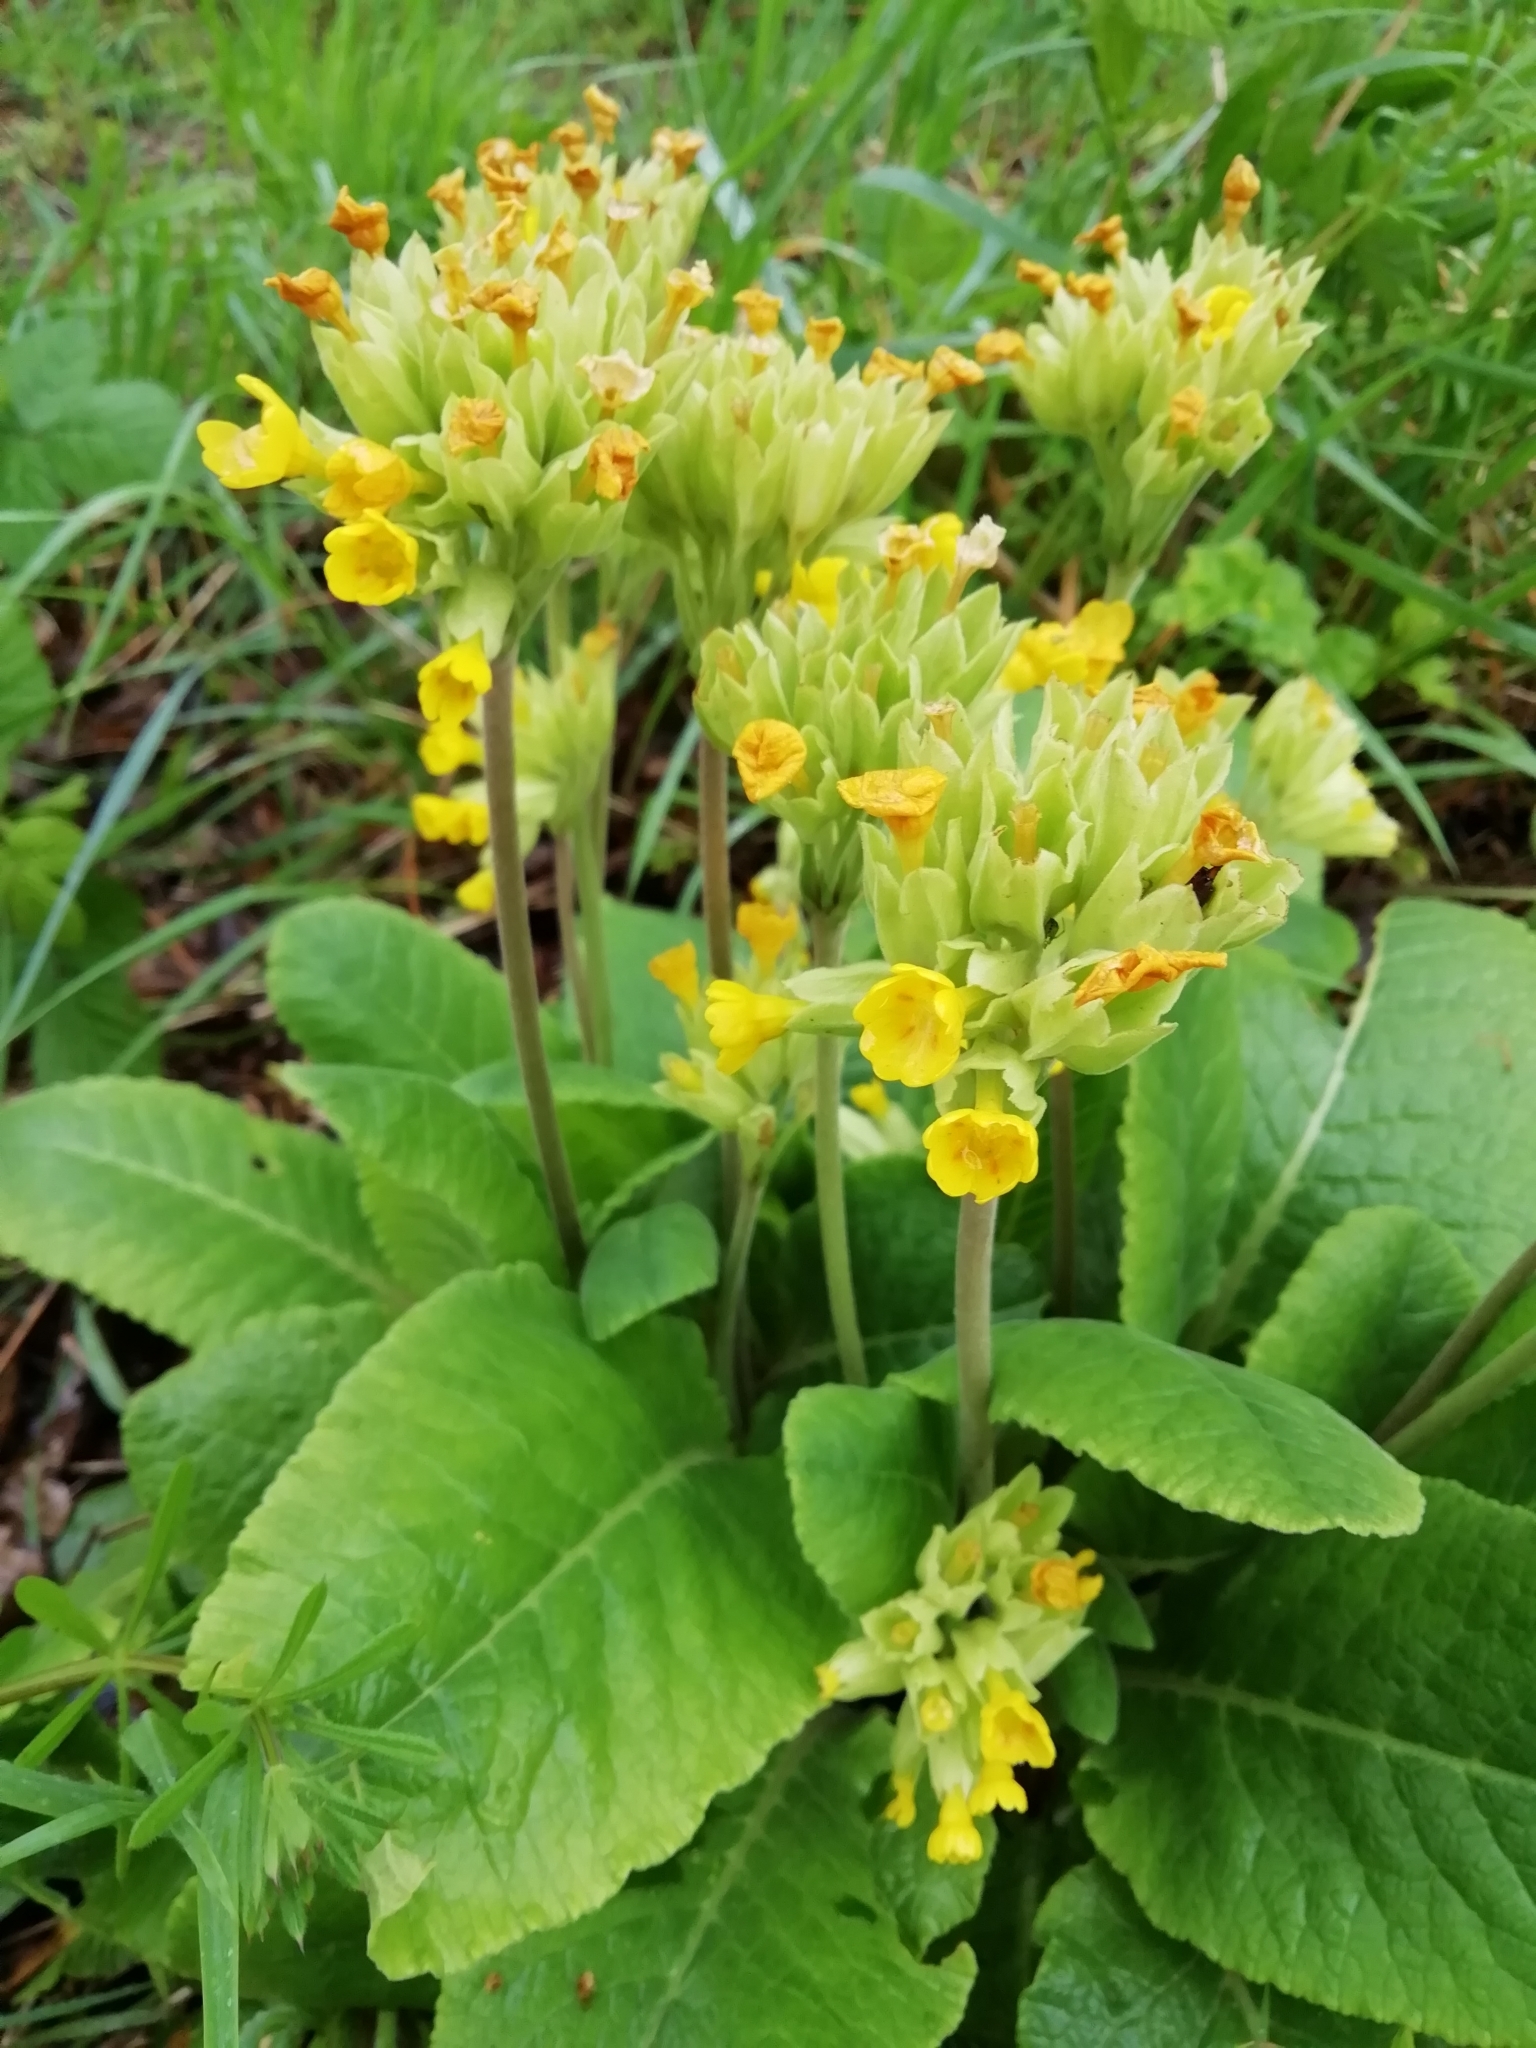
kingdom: Plantae
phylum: Tracheophyta
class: Magnoliopsida
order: Ericales
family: Primulaceae
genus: Primula
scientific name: Primula veris
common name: Cowslip
